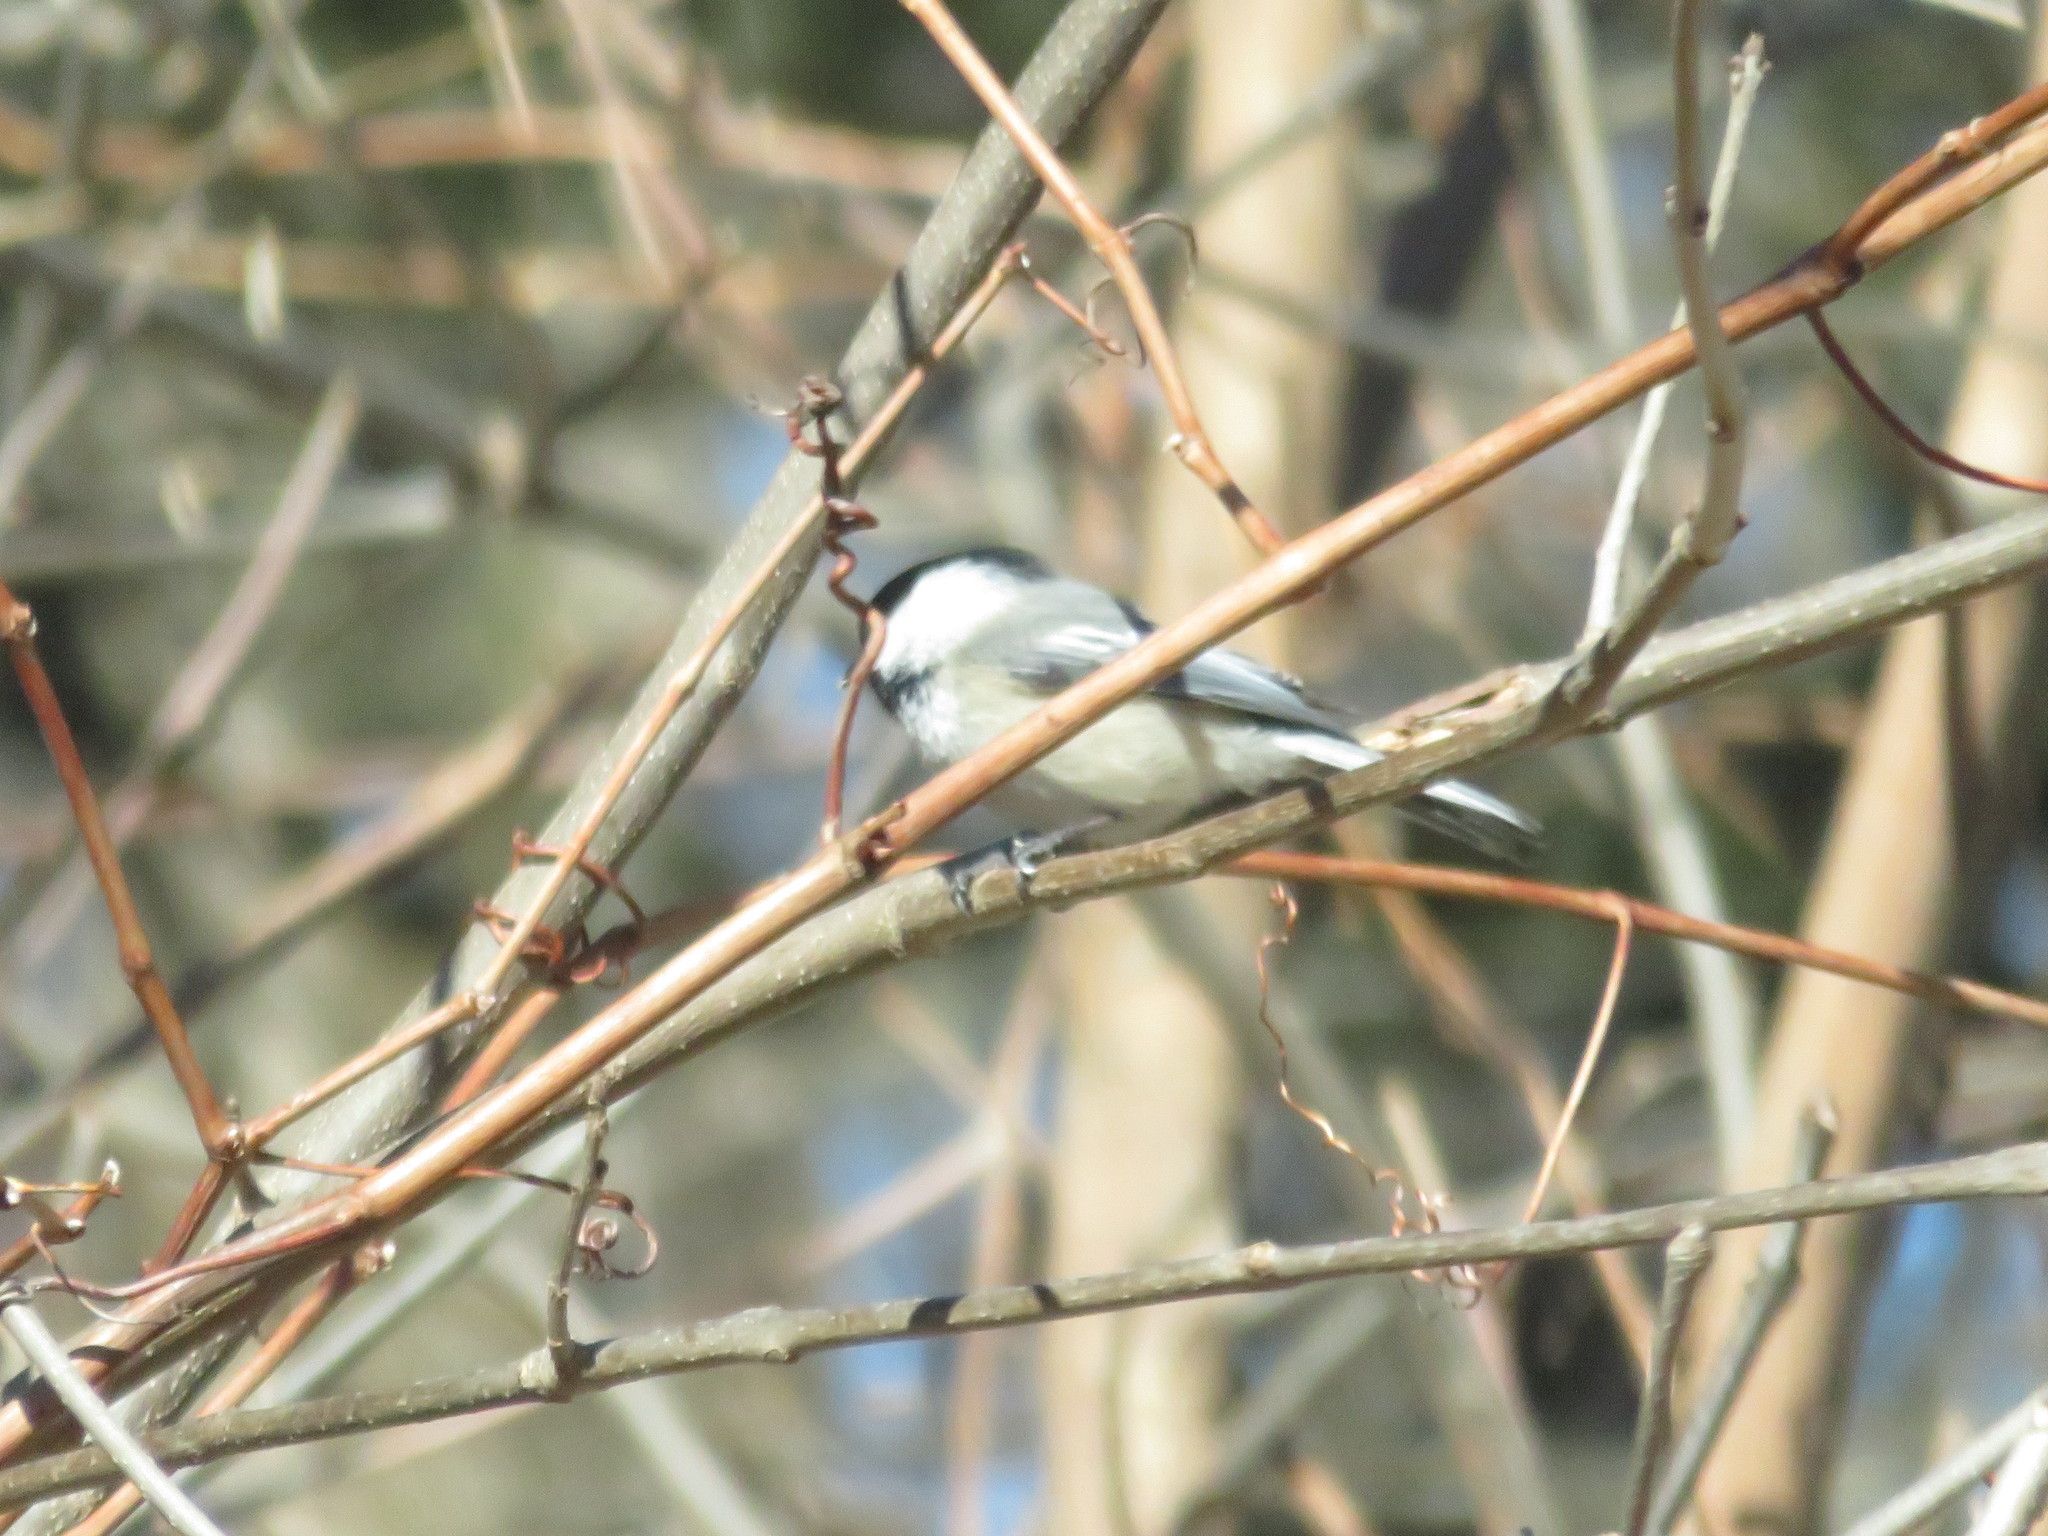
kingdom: Animalia
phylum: Chordata
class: Aves
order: Passeriformes
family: Paridae
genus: Poecile
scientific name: Poecile atricapillus
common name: Black-capped chickadee
